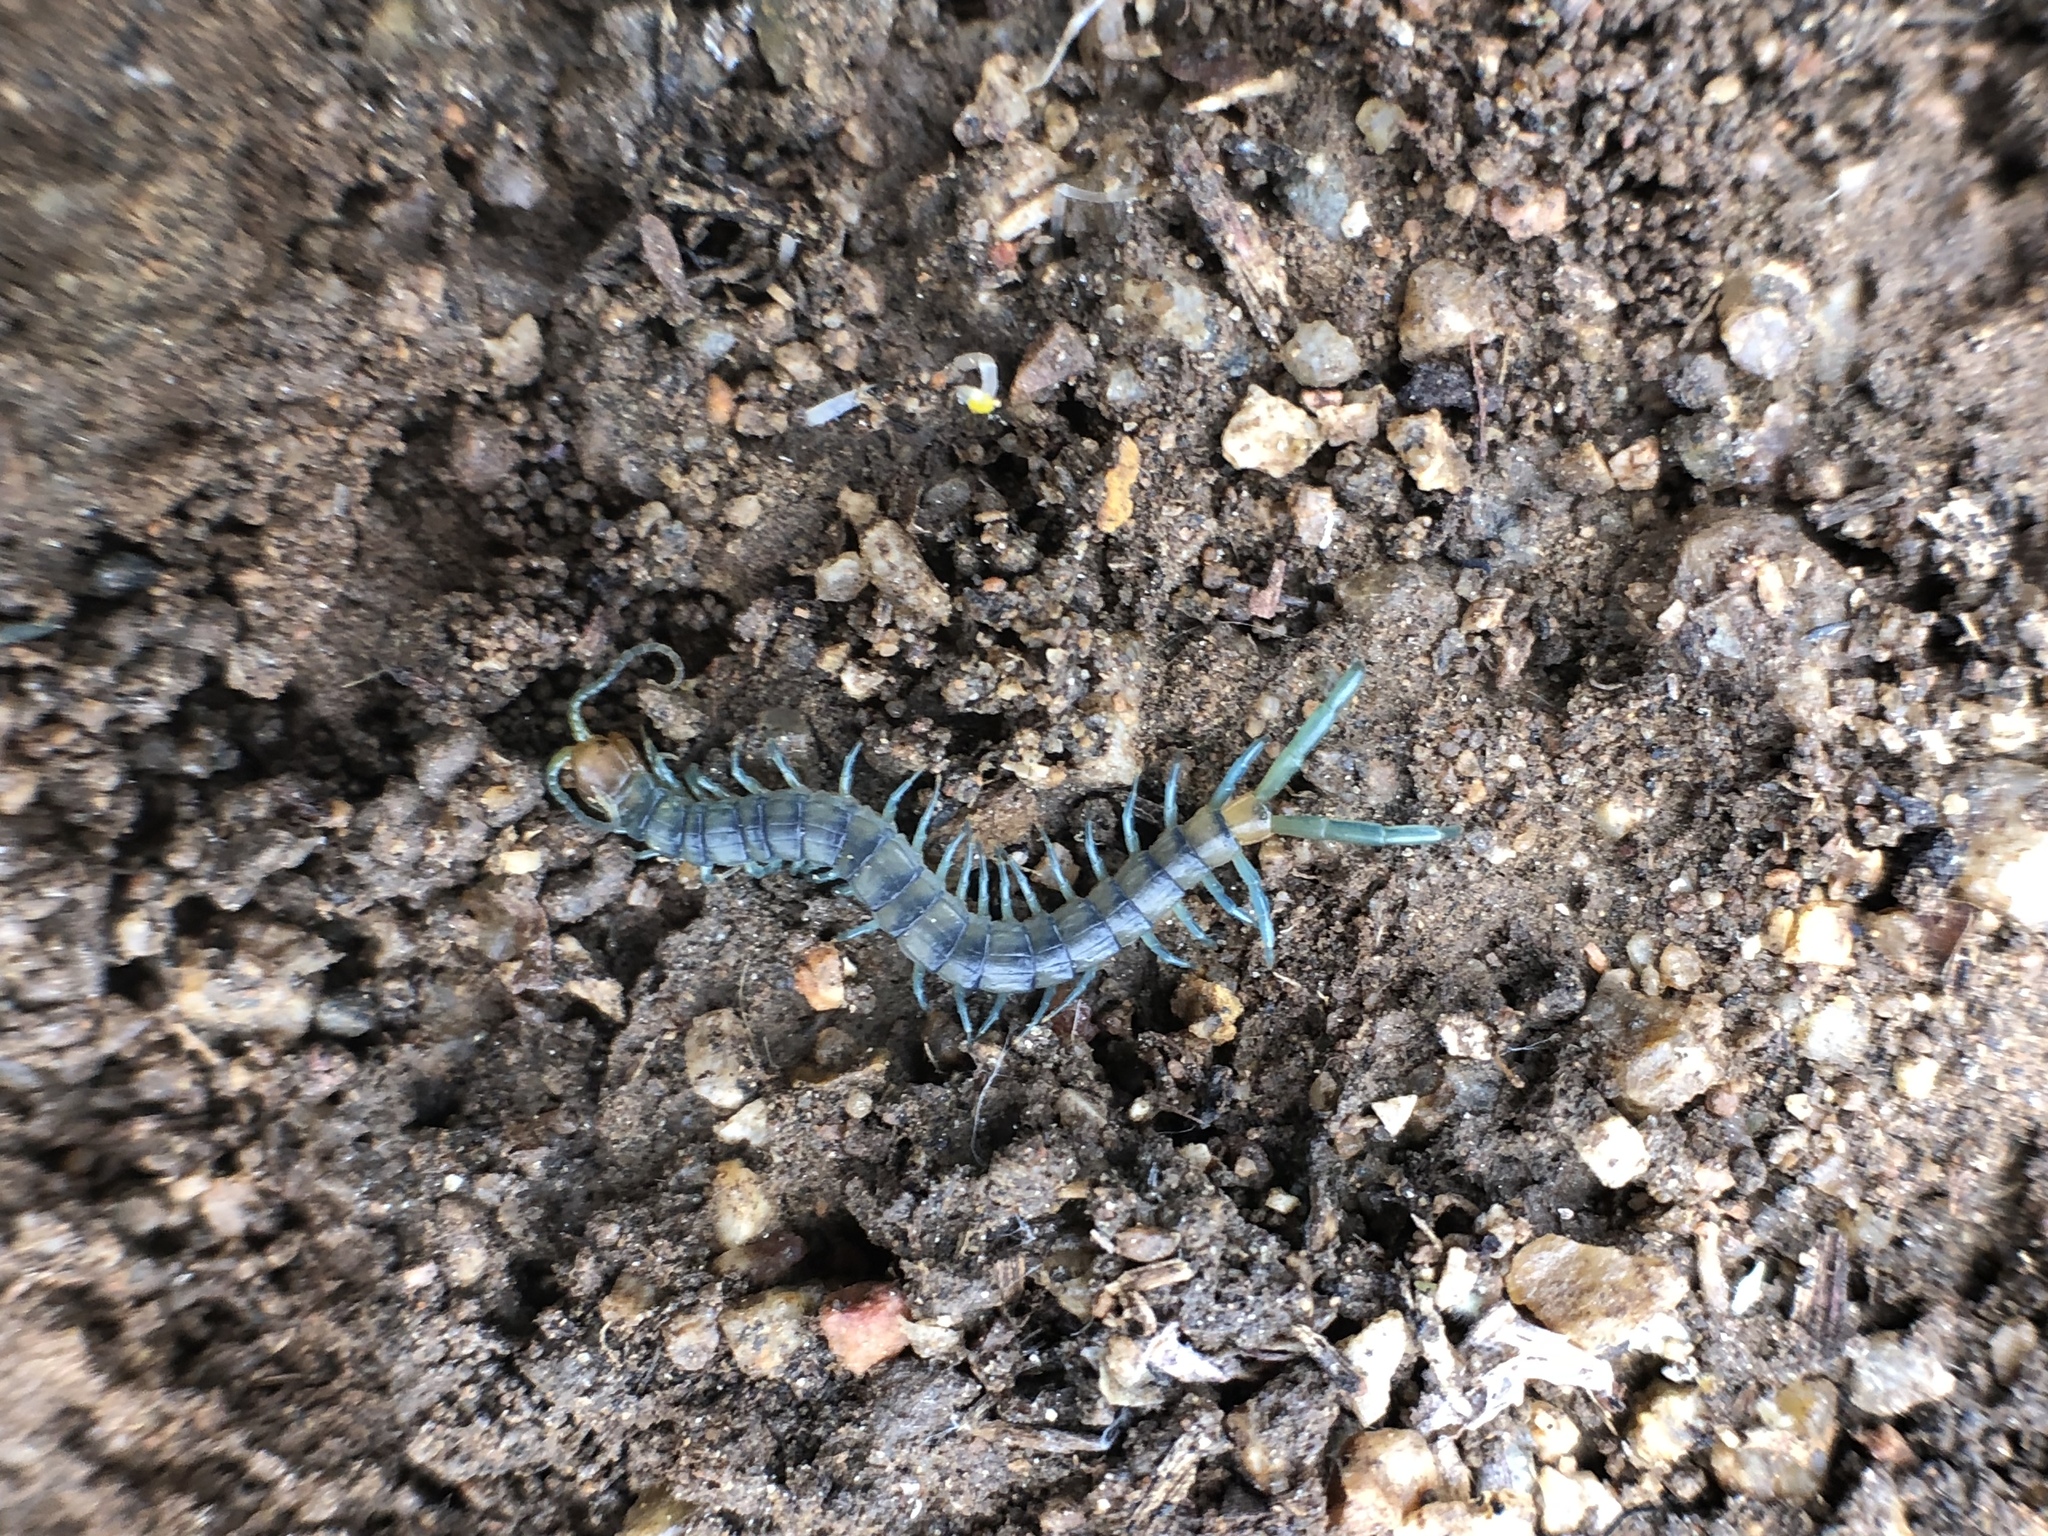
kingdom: Animalia
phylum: Arthropoda
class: Chilopoda
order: Scolopendromorpha
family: Scolopendridae
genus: Scolopendra
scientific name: Scolopendra polymorpha
